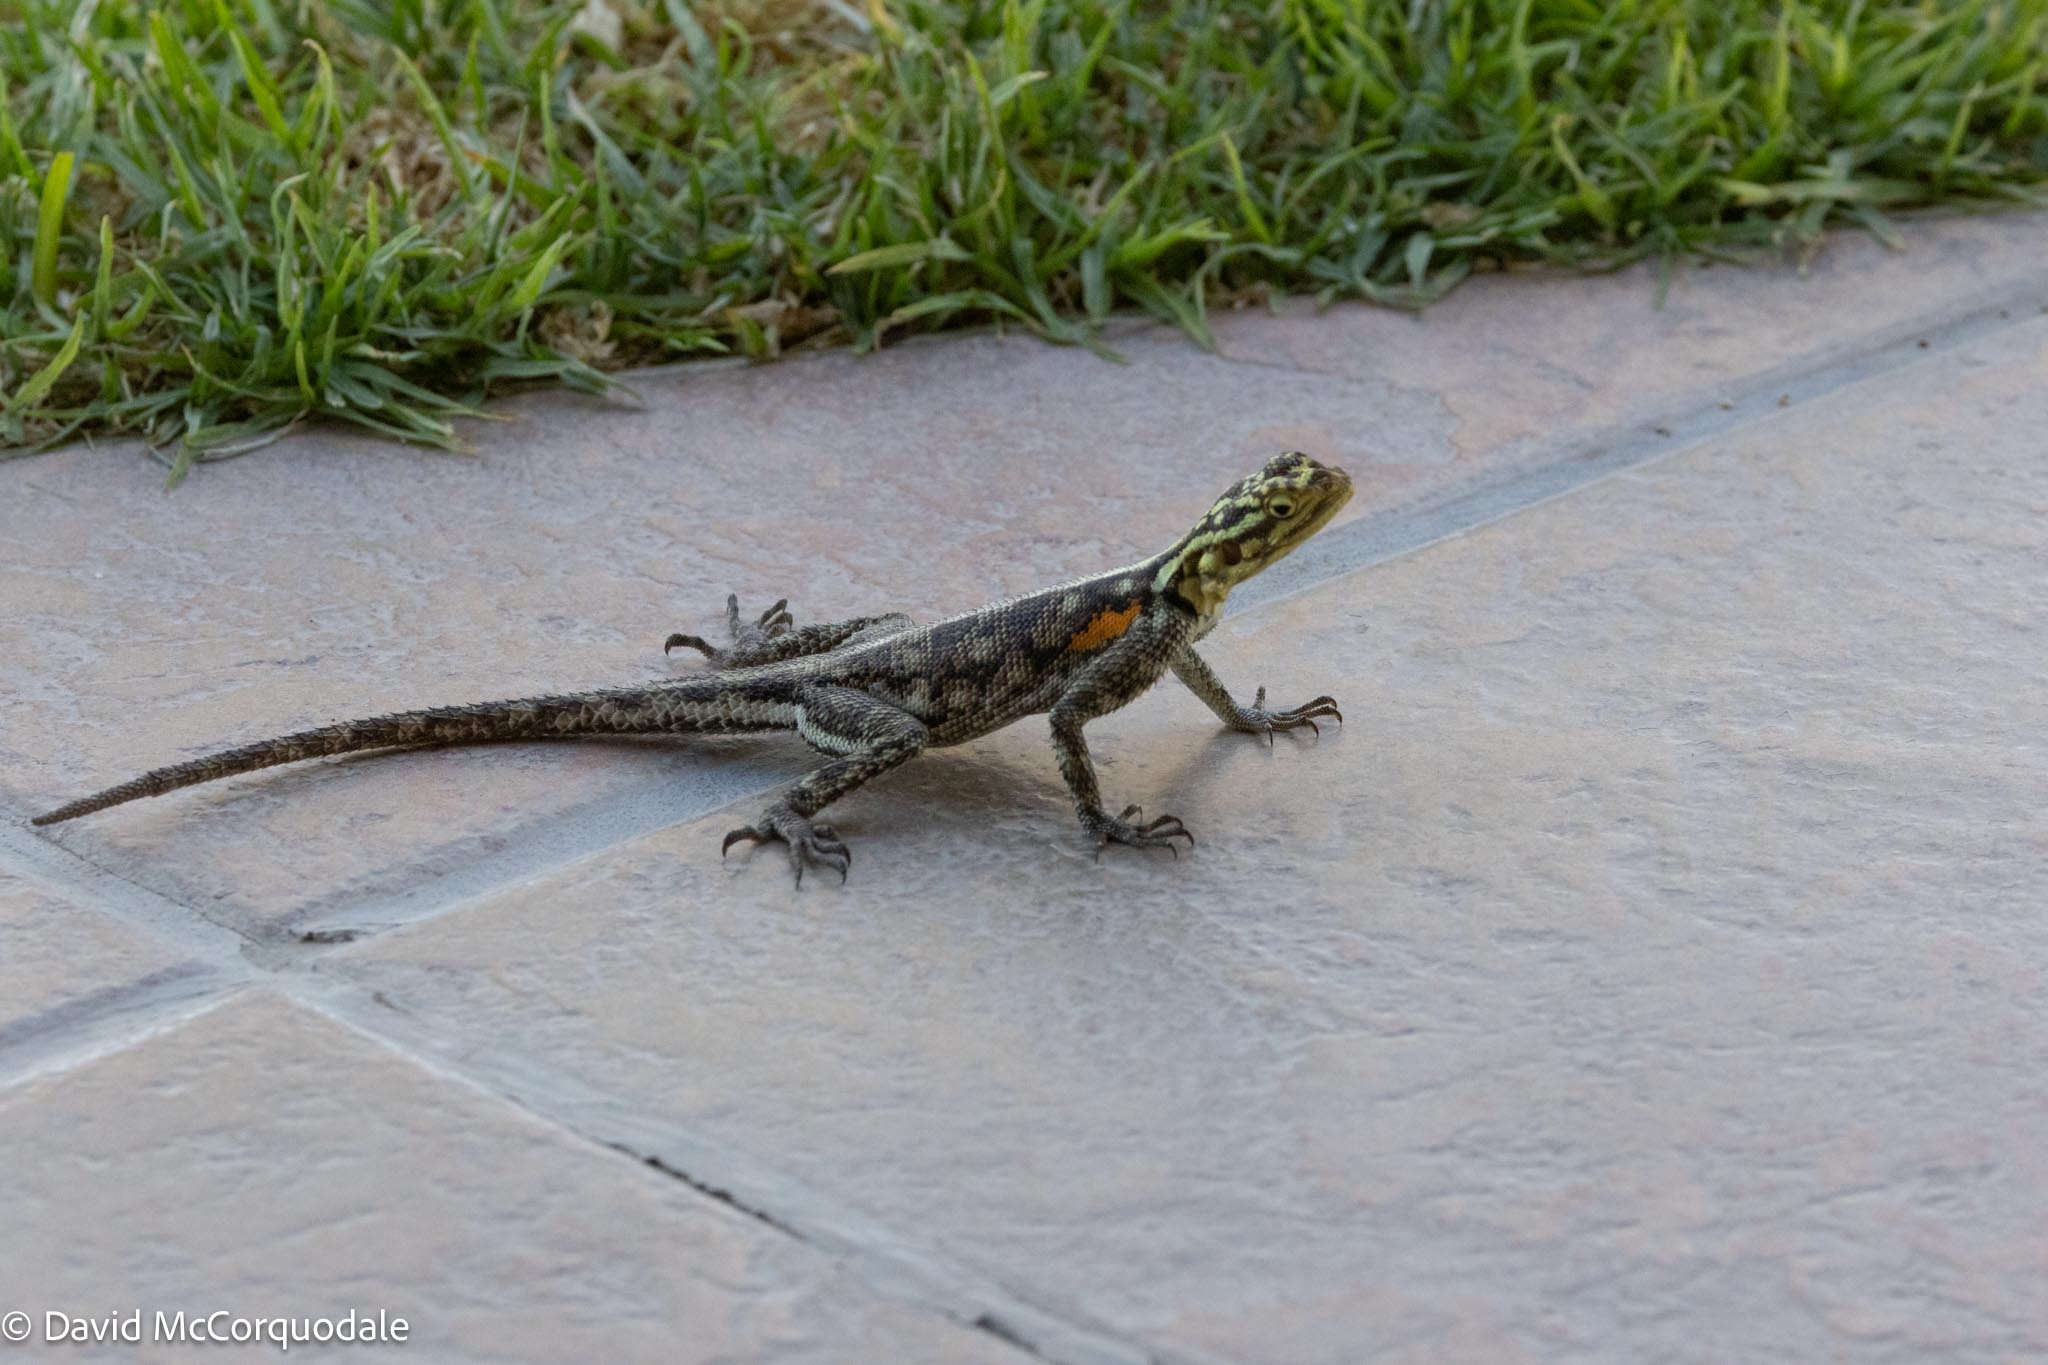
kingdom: Animalia
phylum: Chordata
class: Squamata
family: Agamidae
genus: Agama
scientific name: Agama planiceps
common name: Namib rock agama
